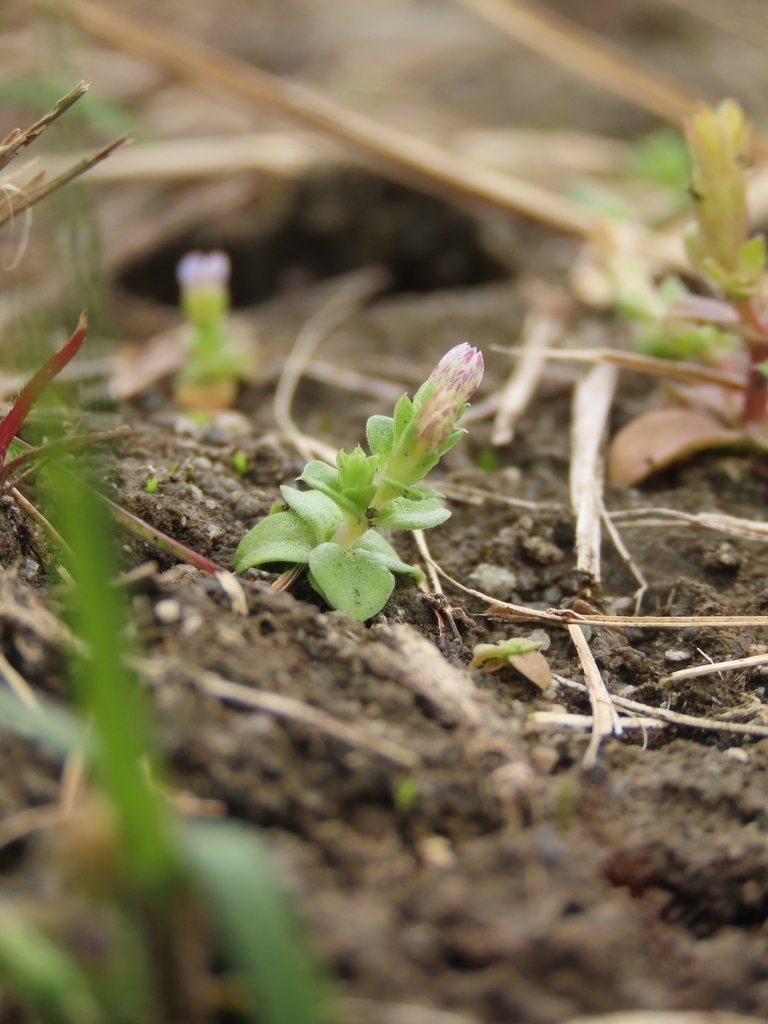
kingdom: Plantae
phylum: Tracheophyta
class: Magnoliopsida
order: Gentianales
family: Gentianaceae
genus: Gentiana
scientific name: Gentiana yokusai
